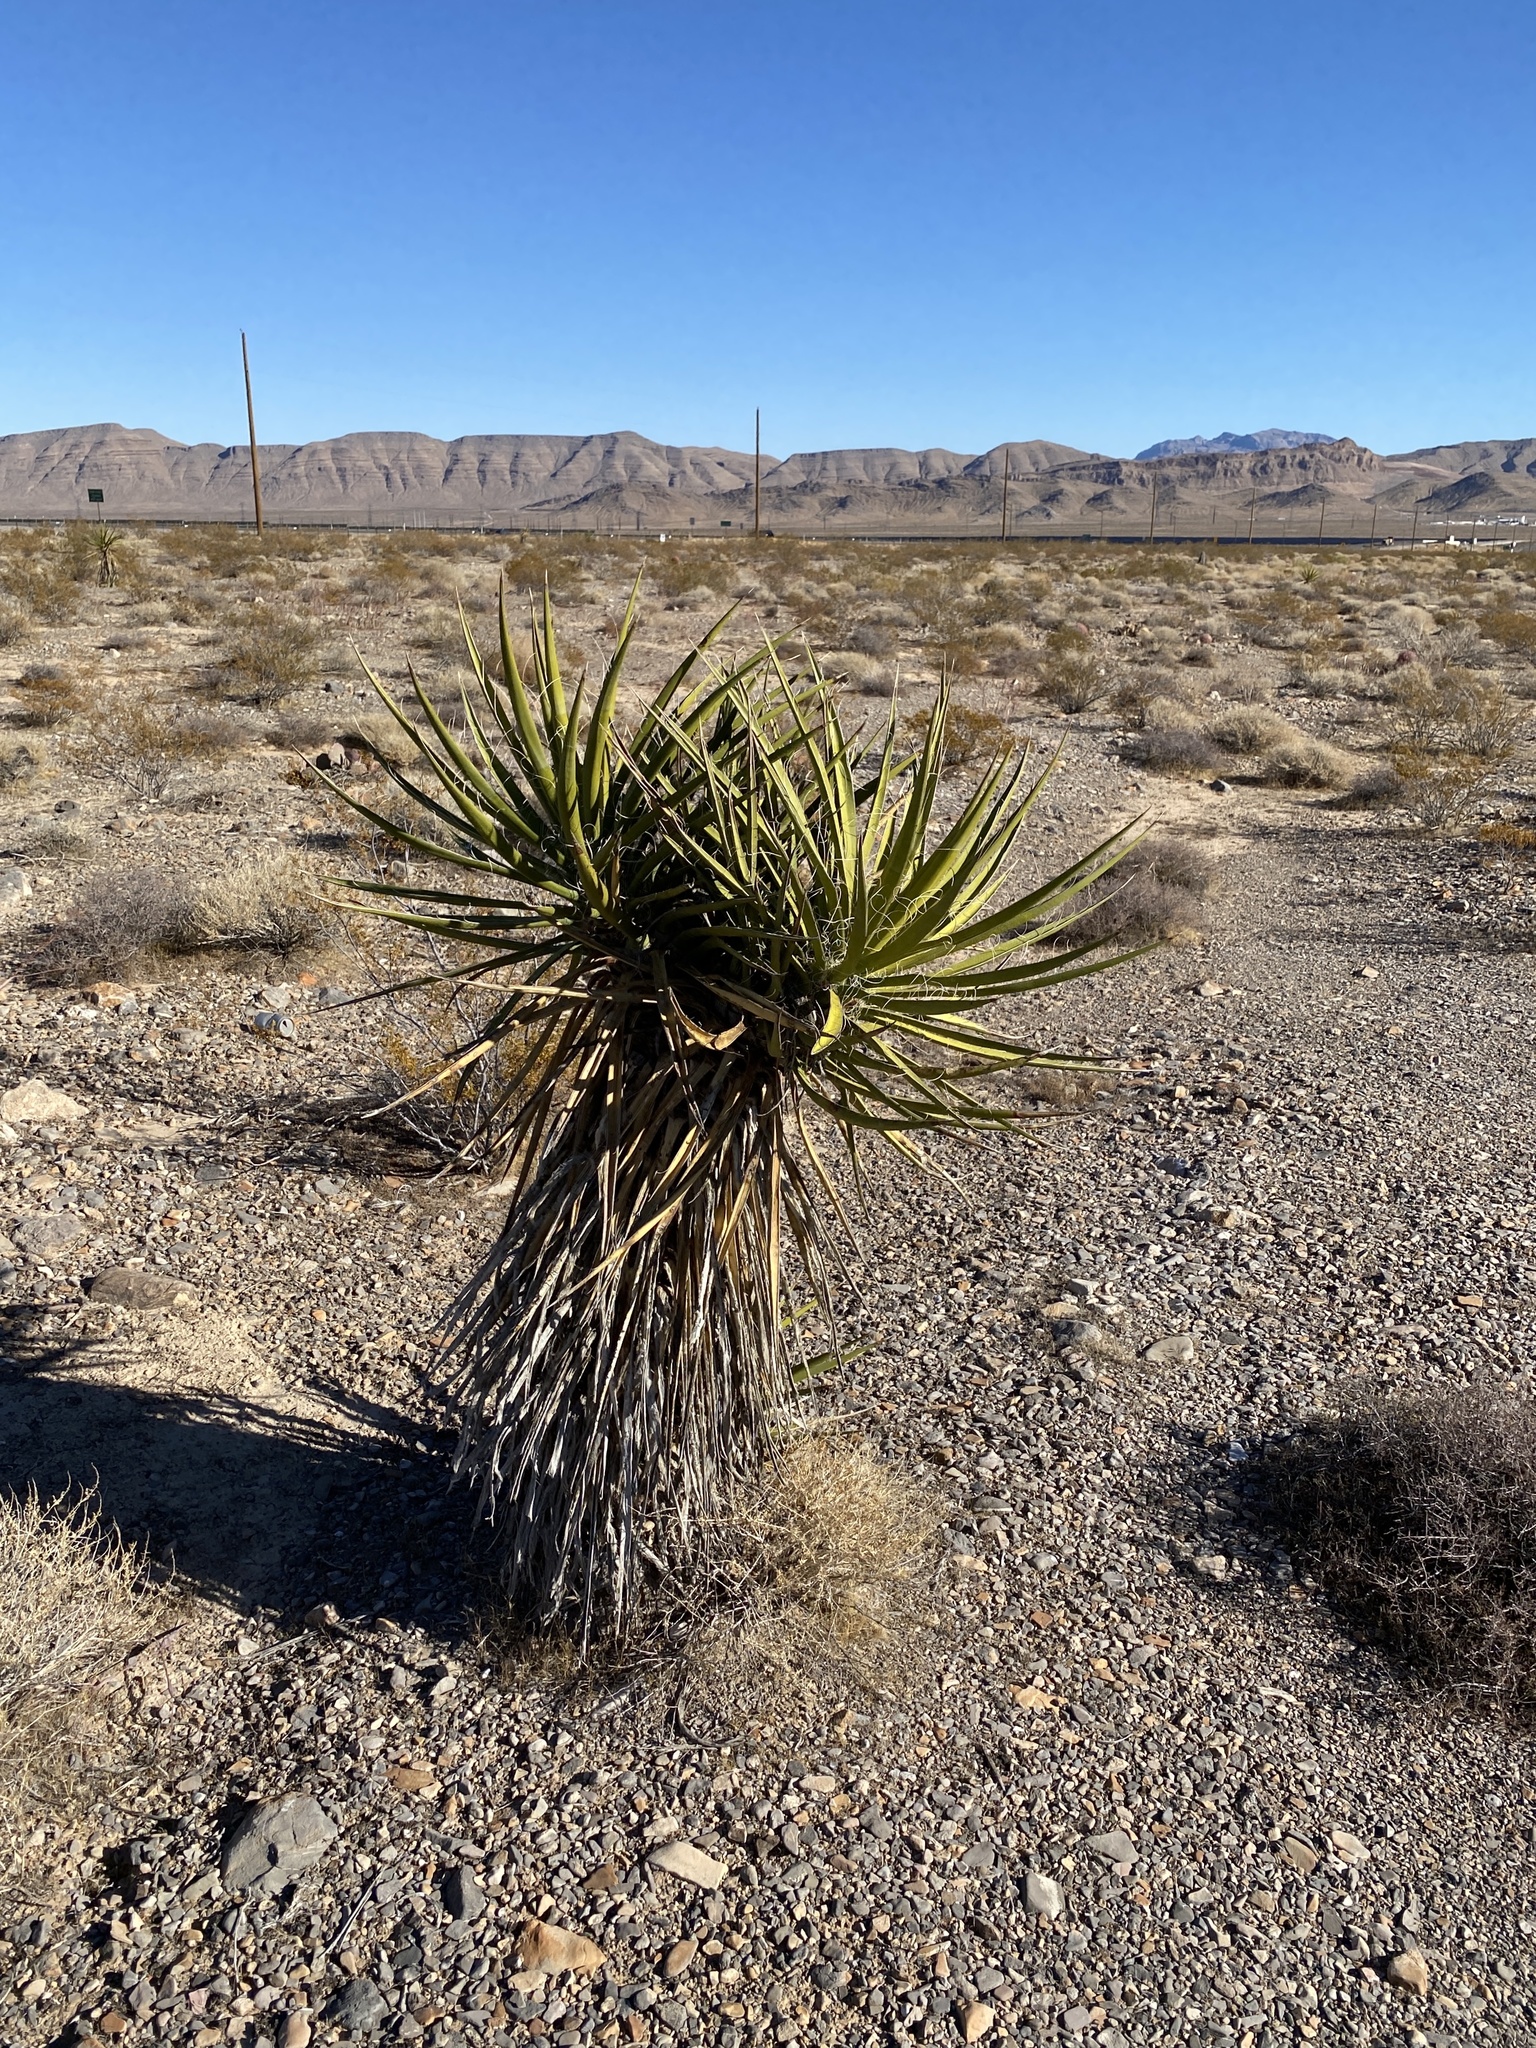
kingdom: Plantae
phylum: Tracheophyta
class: Liliopsida
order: Asparagales
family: Asparagaceae
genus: Yucca
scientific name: Yucca schidigera
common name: Mojave yucca
